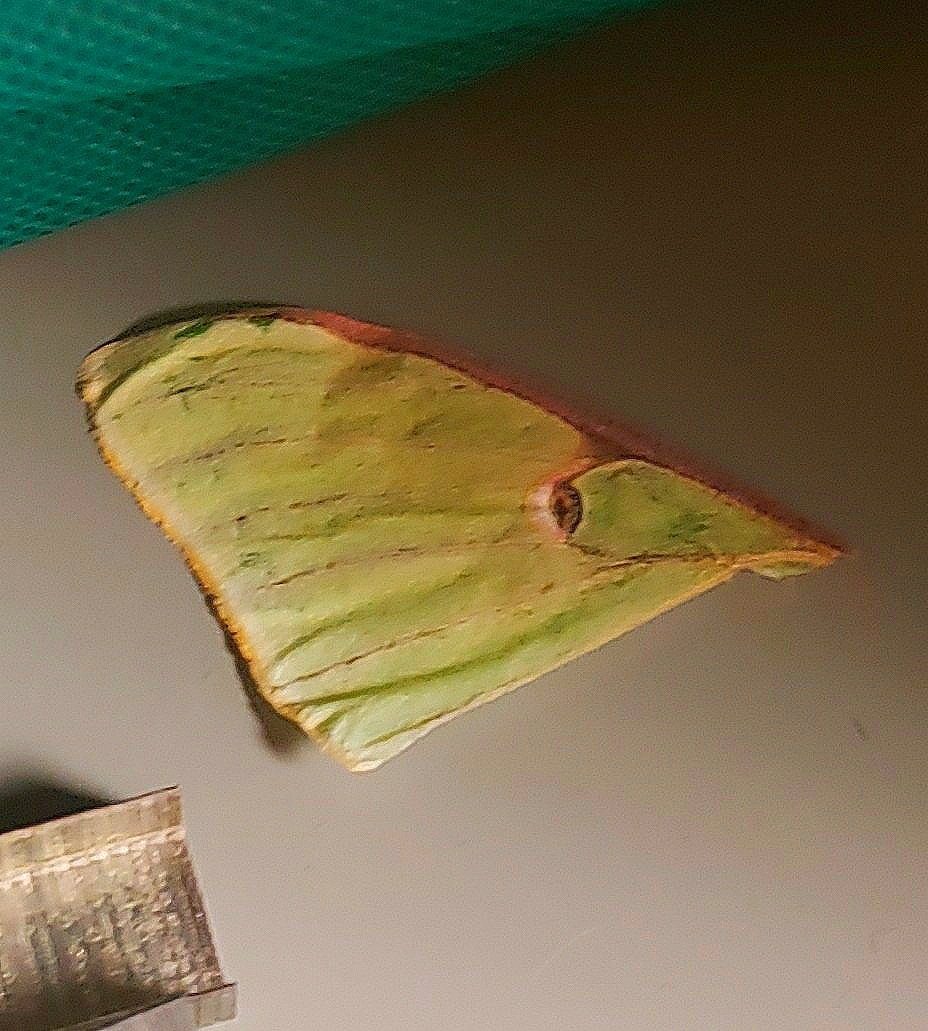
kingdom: Animalia
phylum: Arthropoda
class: Insecta
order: Lepidoptera
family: Saturniidae
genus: Actias
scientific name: Actias luna
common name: Luna moth
